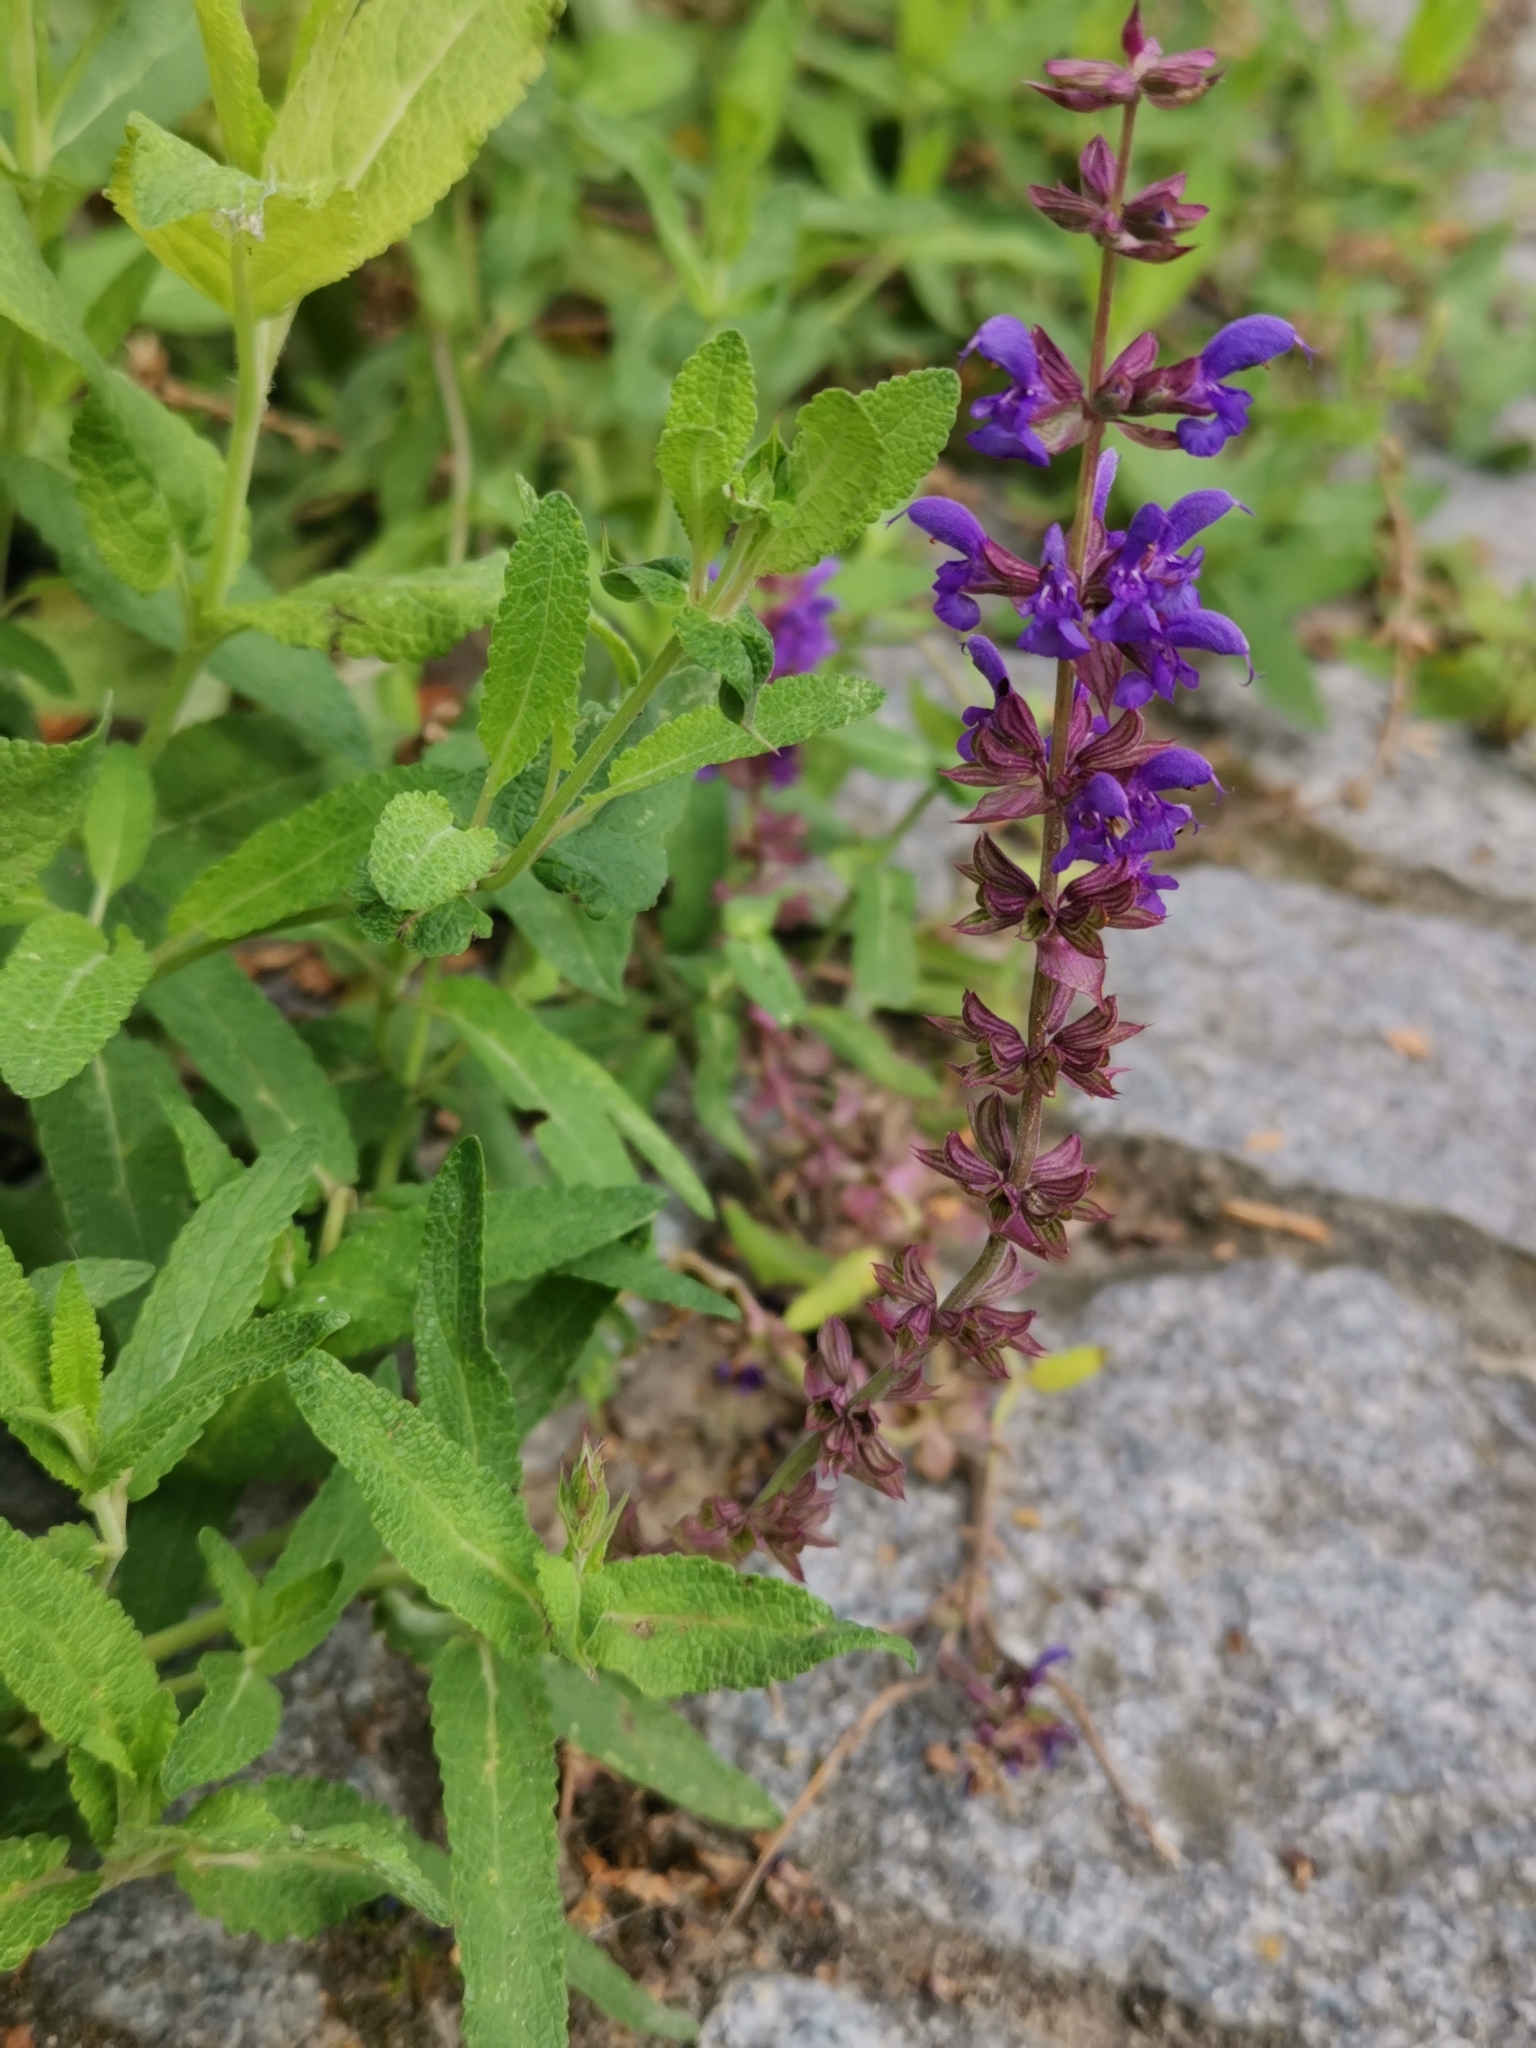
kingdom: Plantae
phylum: Tracheophyta
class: Magnoliopsida
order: Lamiales
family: Lamiaceae
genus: Salvia
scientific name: Salvia nemorosa
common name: Balkan clary
